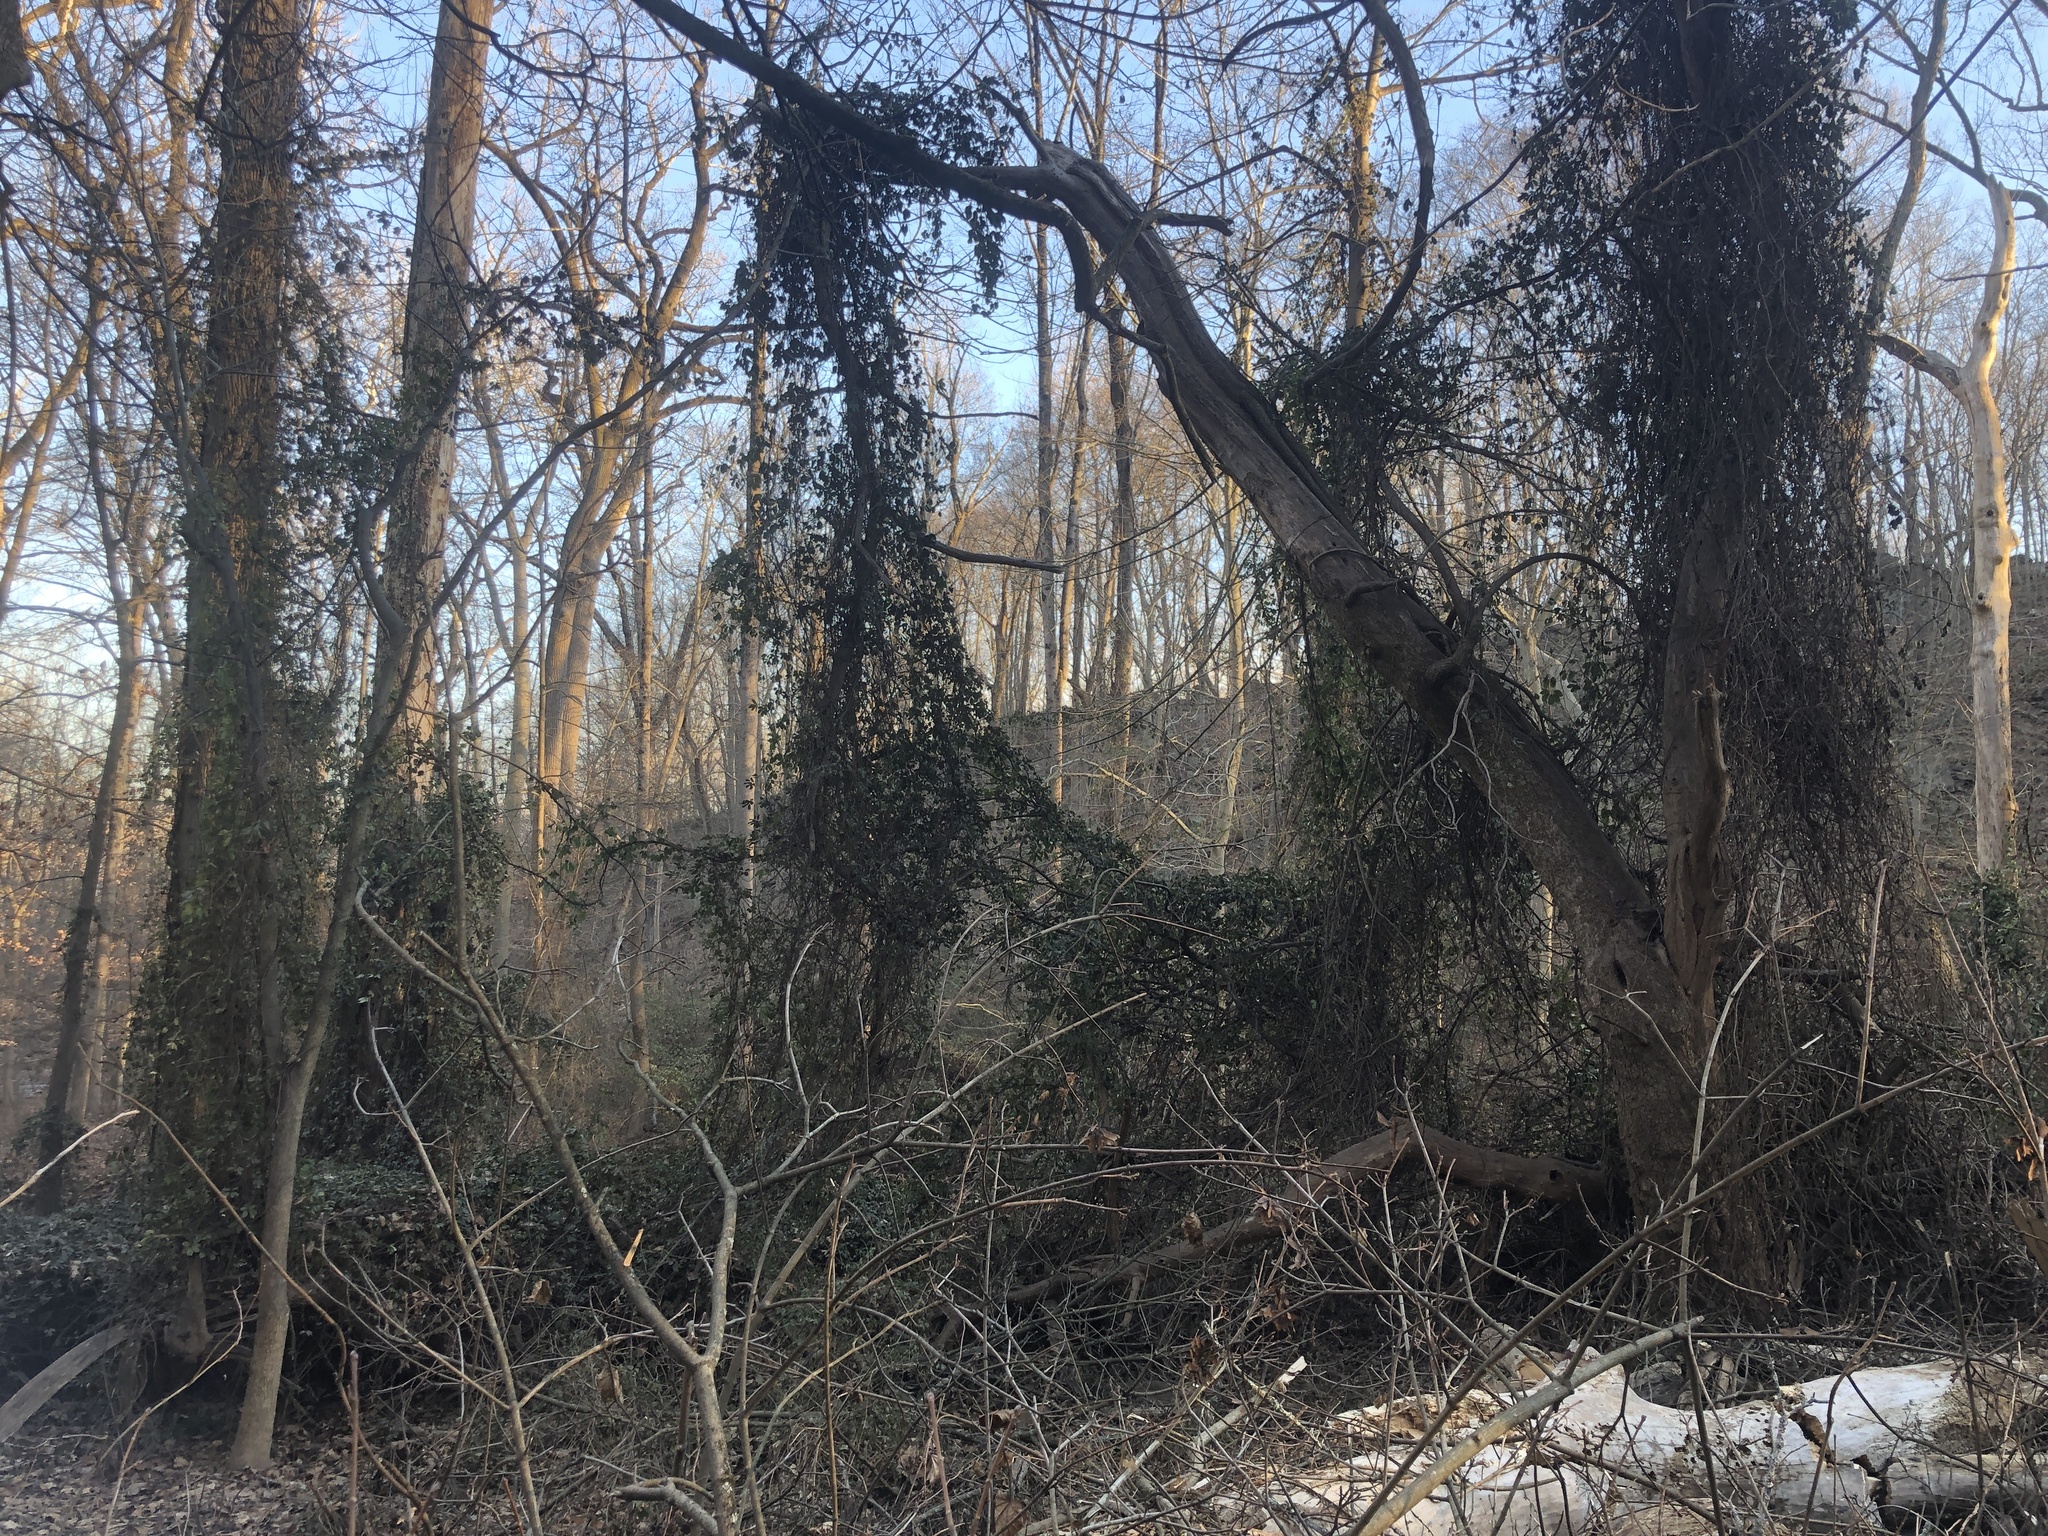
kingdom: Plantae
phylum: Tracheophyta
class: Magnoliopsida
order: Ranunculales
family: Lardizabalaceae
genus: Akebia
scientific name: Akebia quinata
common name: Five-leaf akebia
